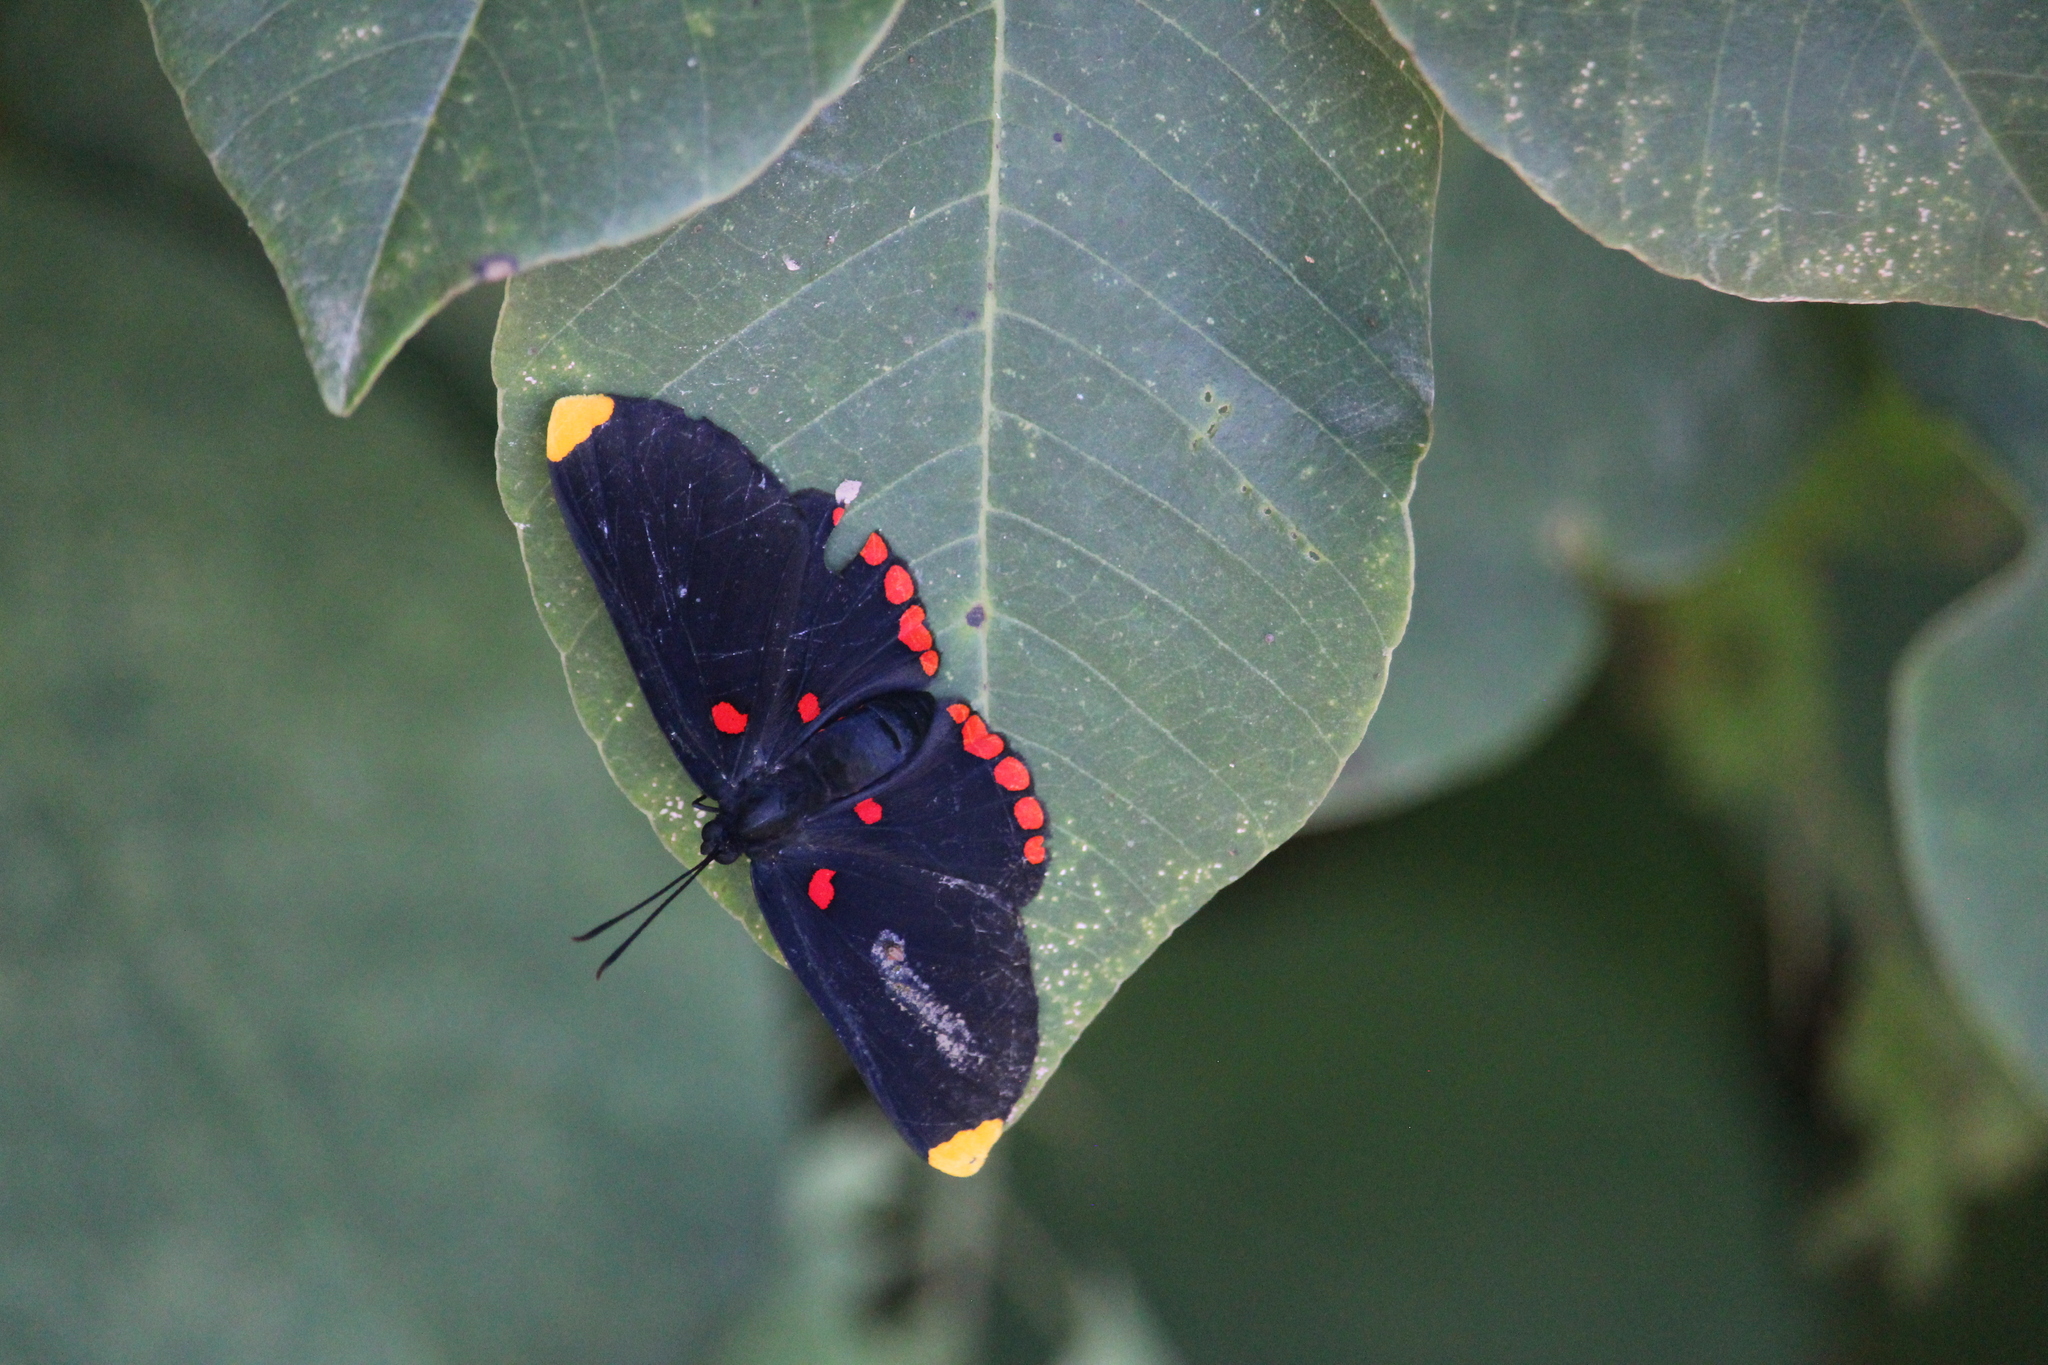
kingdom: Animalia
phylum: Arthropoda
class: Insecta
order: Lepidoptera
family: Lycaenidae
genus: Melanis
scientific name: Melanis pixe
